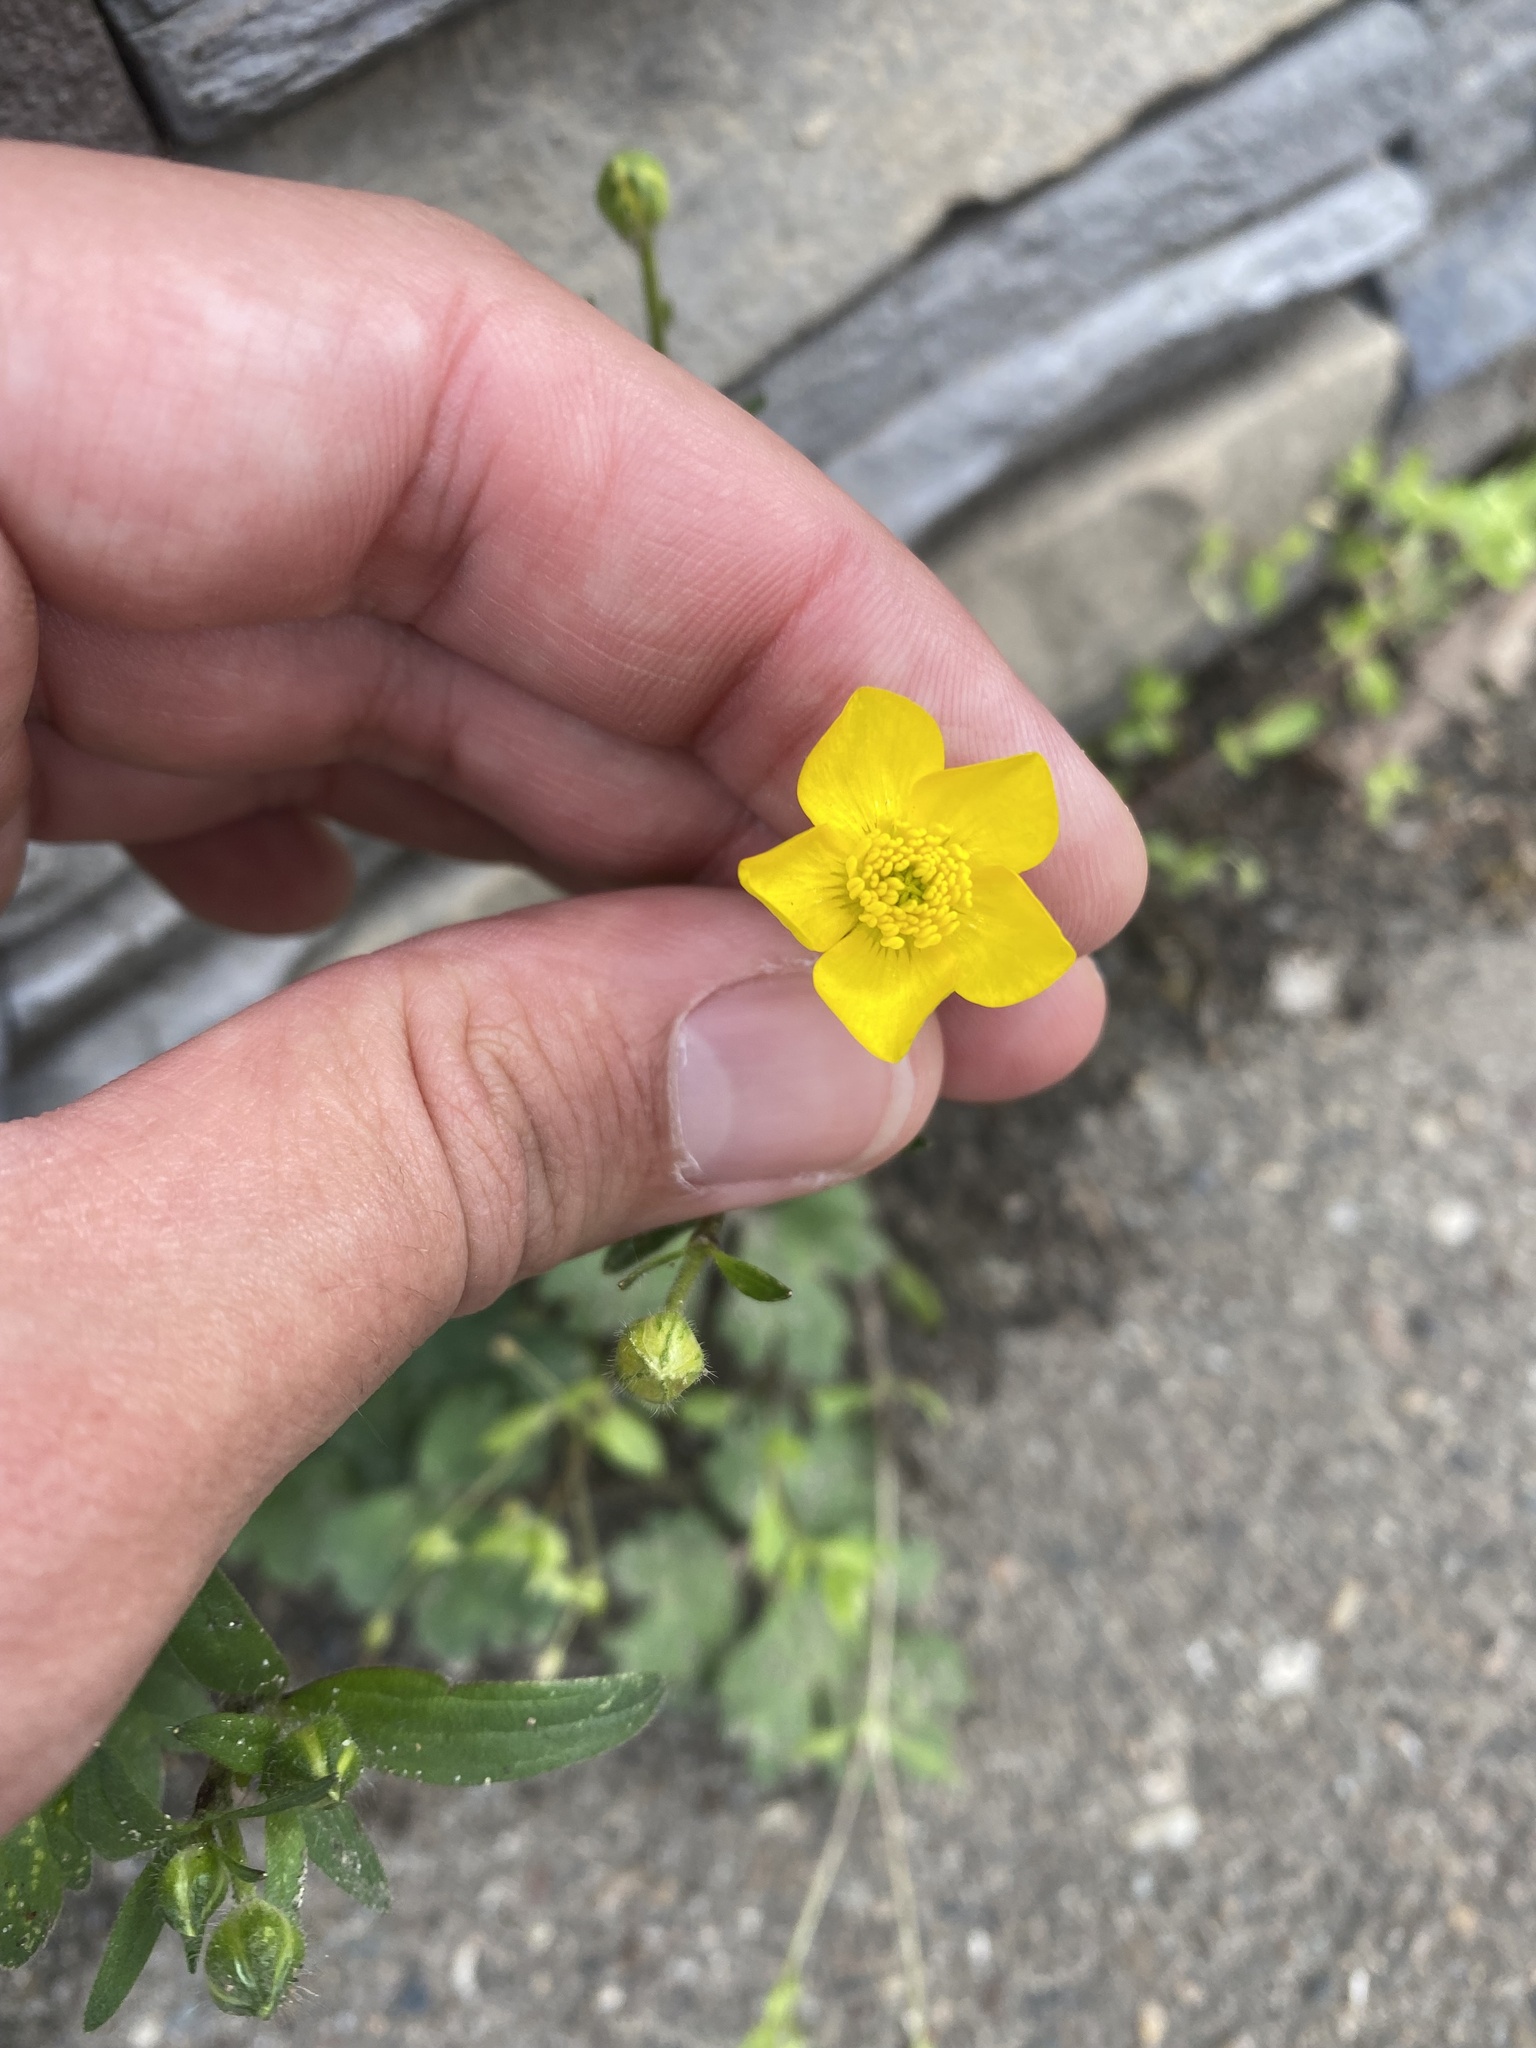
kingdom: Plantae
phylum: Tracheophyta
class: Magnoliopsida
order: Ranunculales
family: Ranunculaceae
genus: Ranunculus
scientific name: Ranunculus constantinopolitanus
